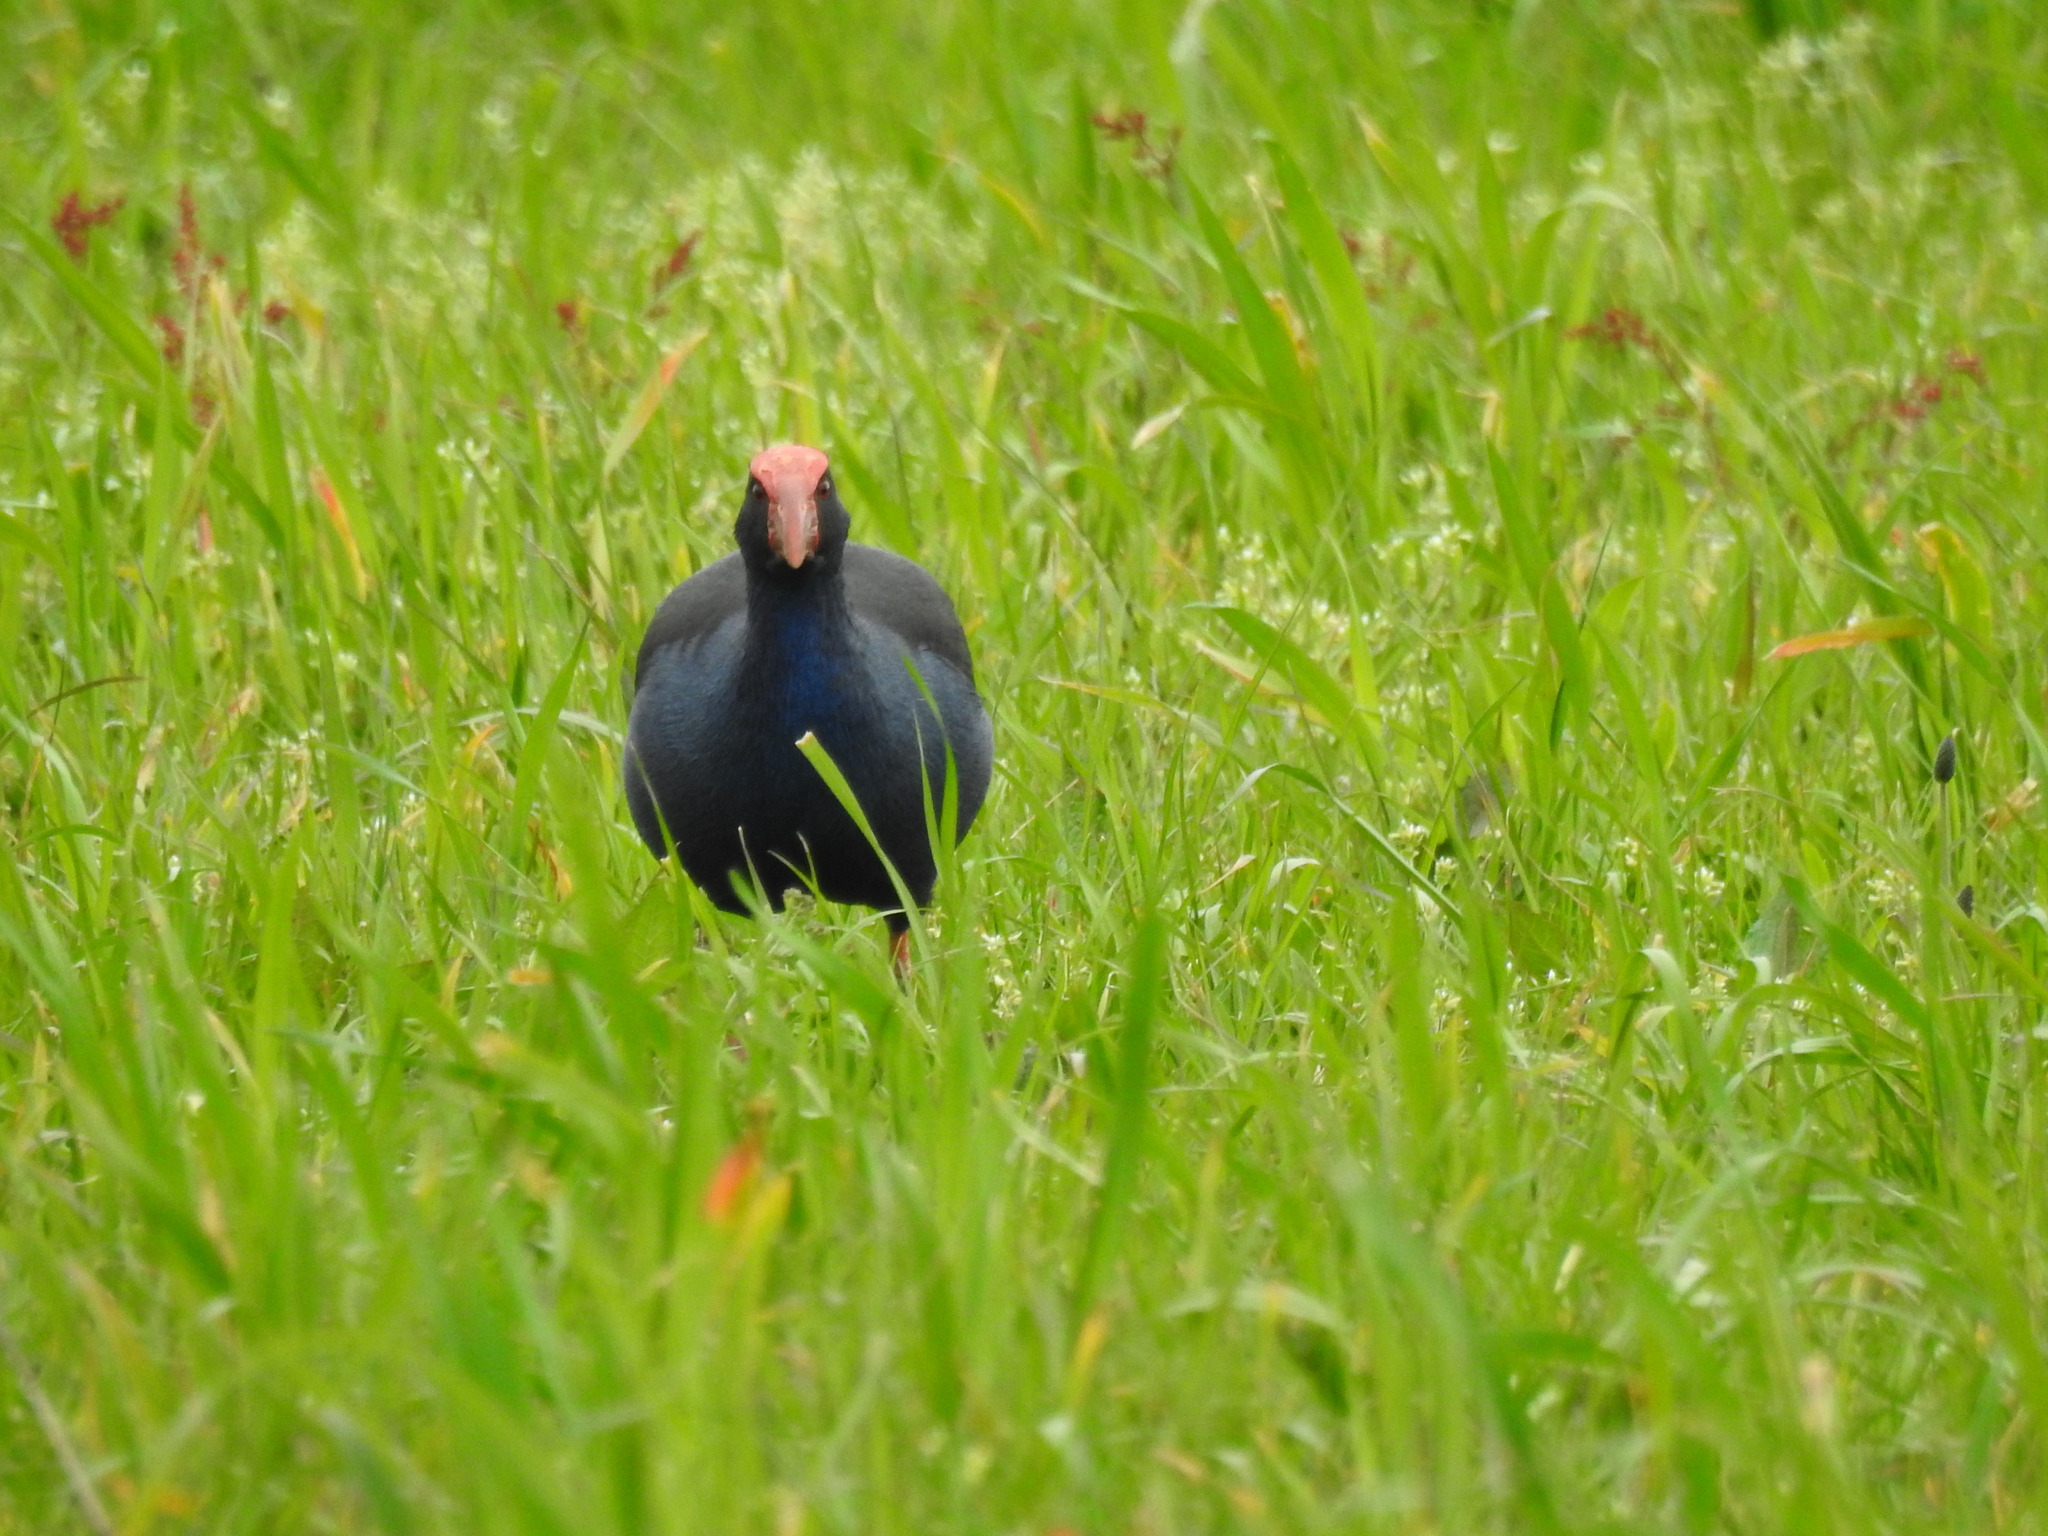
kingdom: Animalia
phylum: Chordata
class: Aves
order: Gruiformes
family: Rallidae
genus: Porphyrio
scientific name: Porphyrio melanotus
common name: Australasian swamphen
